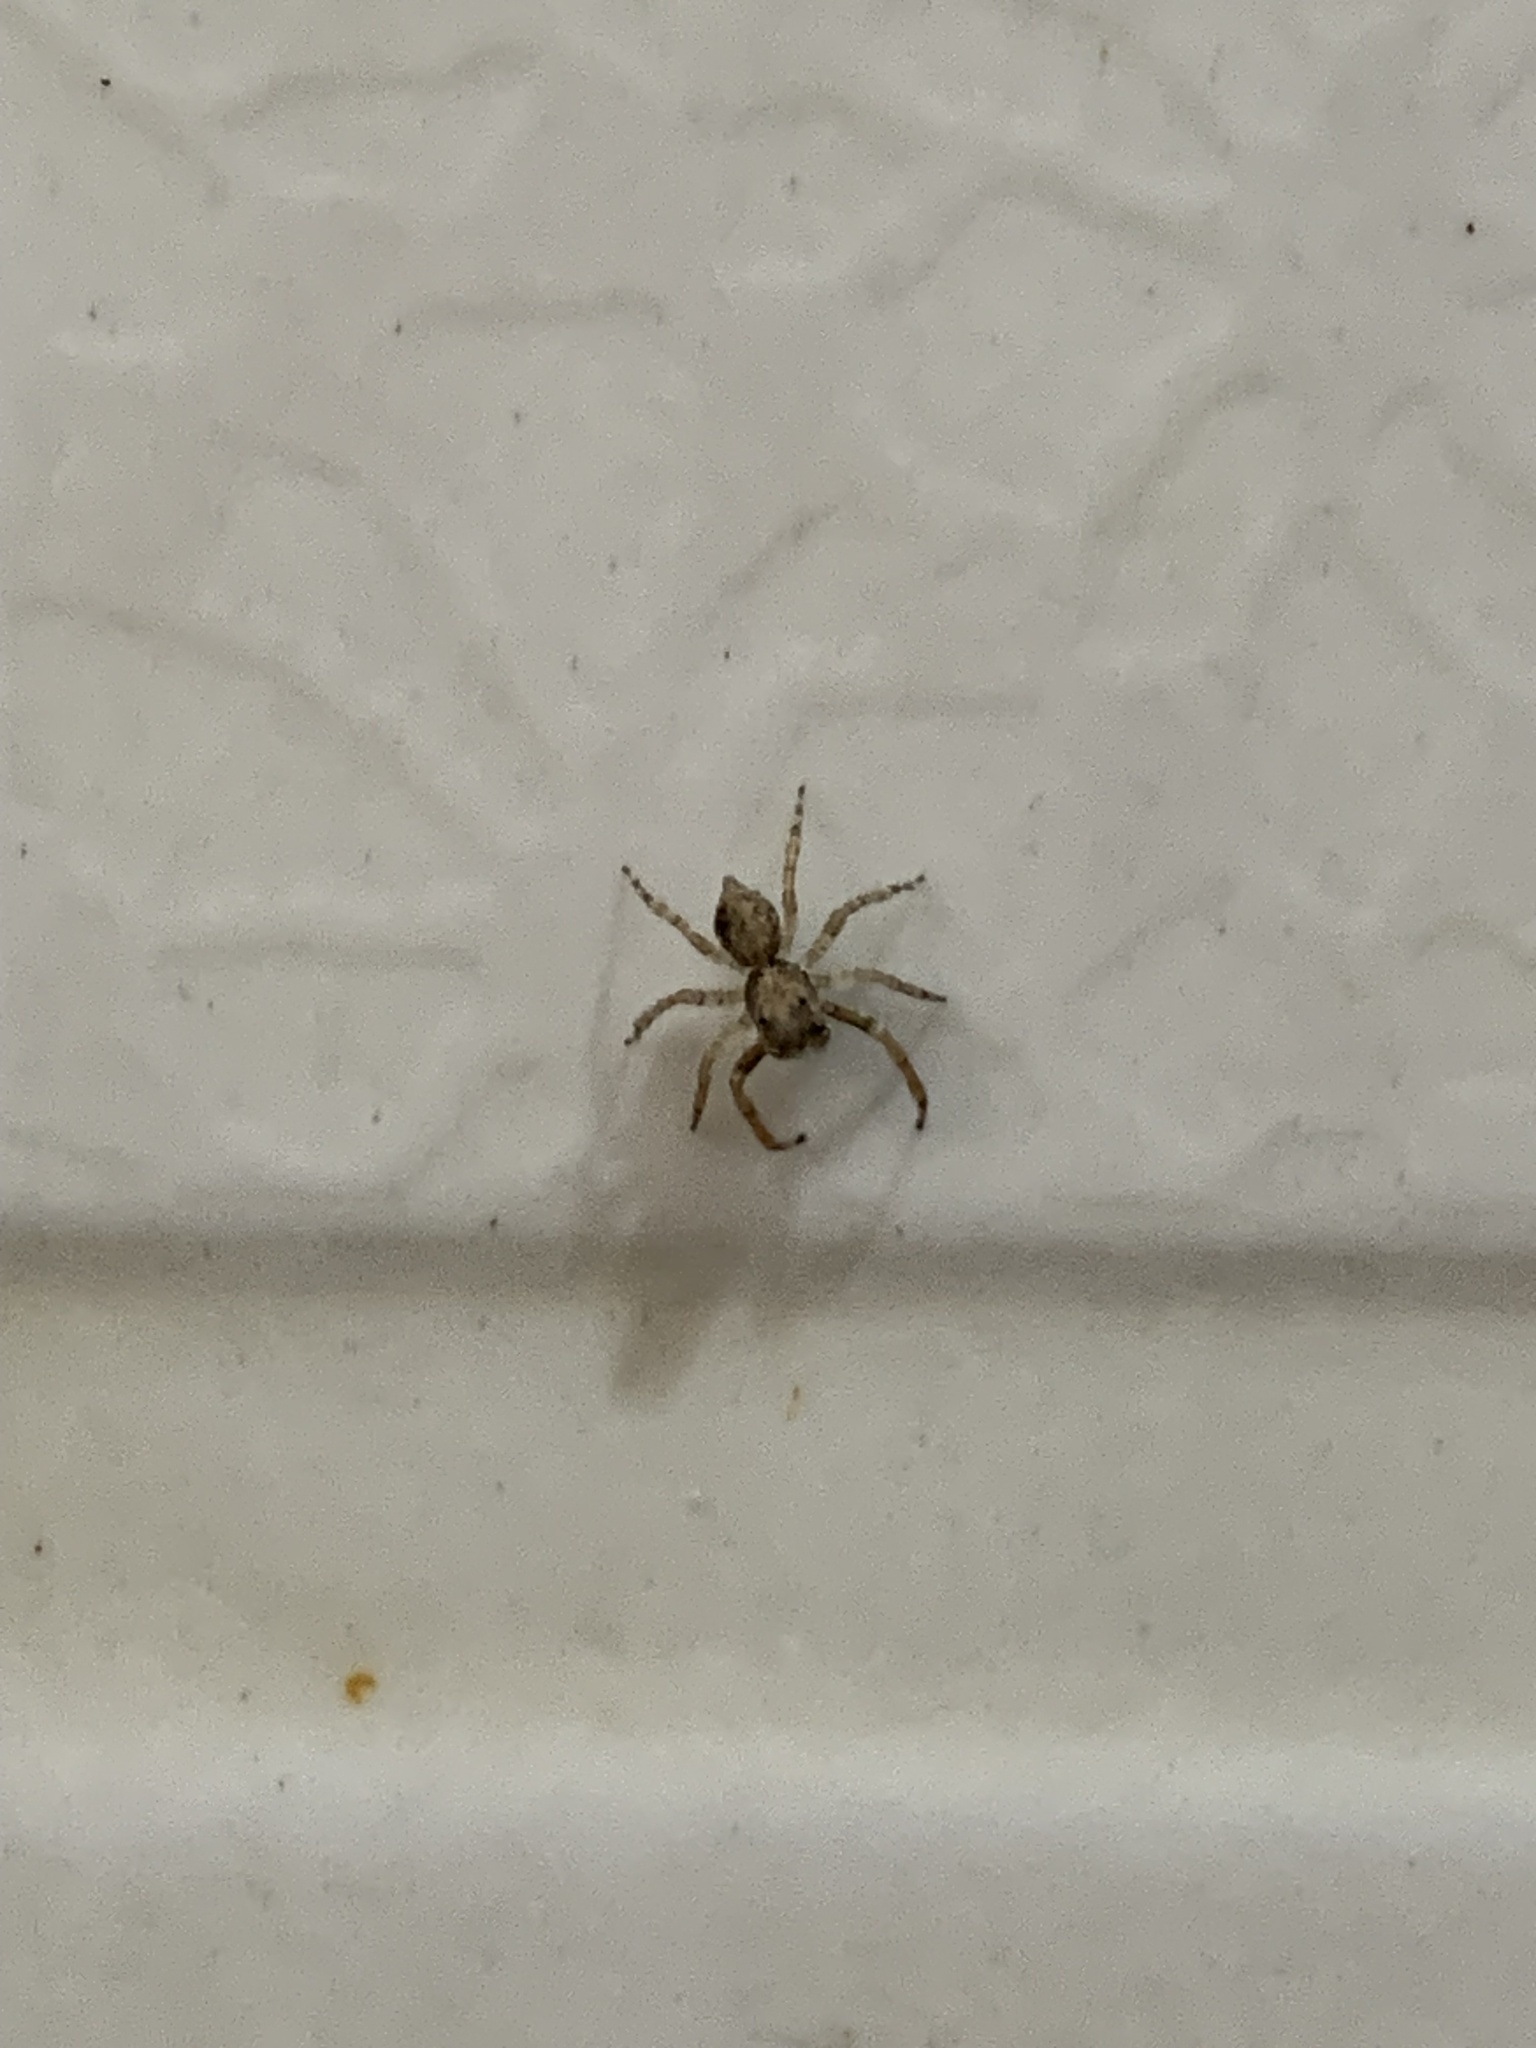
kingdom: Animalia
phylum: Arthropoda
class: Arachnida
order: Araneae
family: Salticidae
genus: Marma
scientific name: Marma nigritarsis
